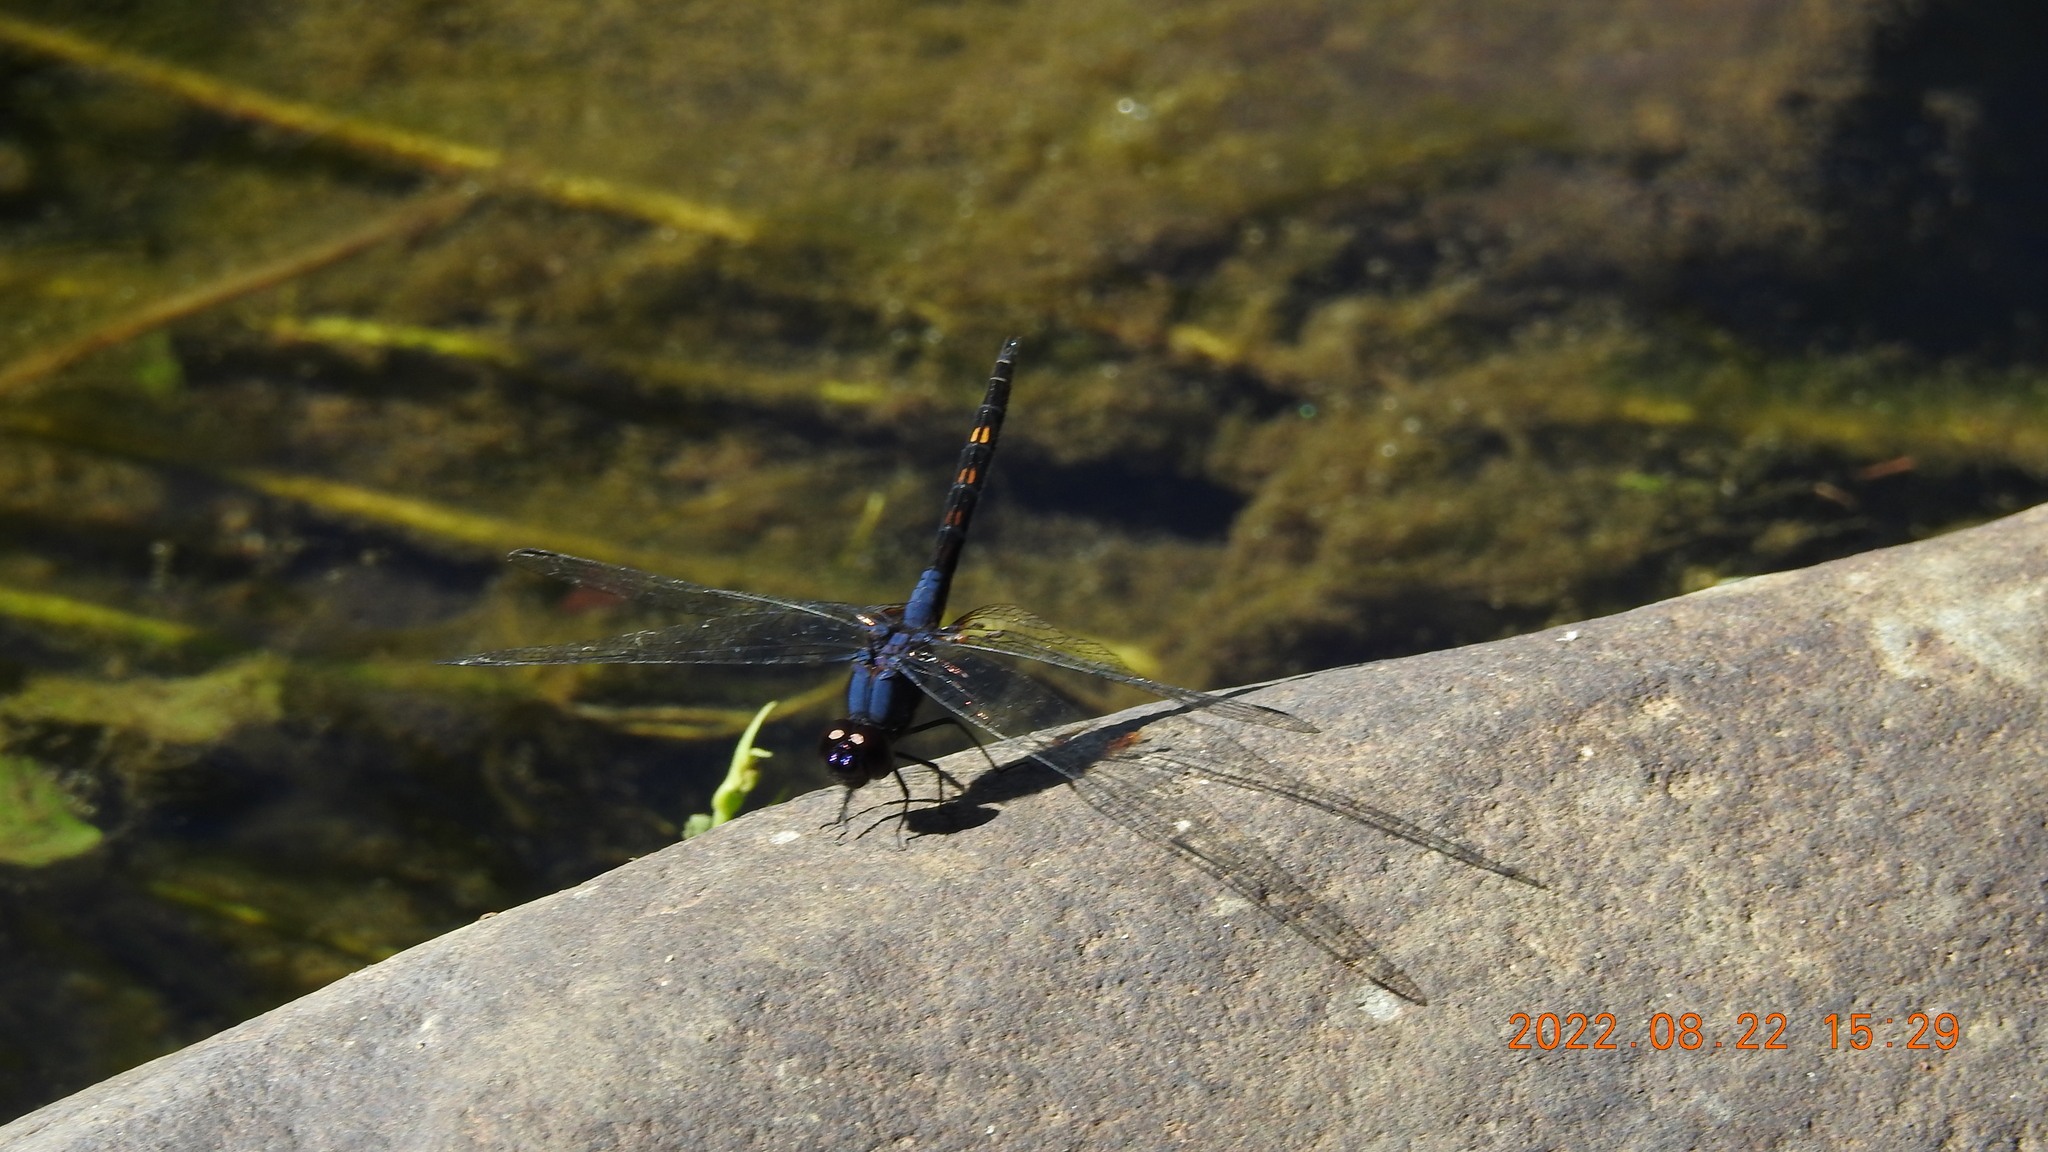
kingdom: Animalia
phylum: Arthropoda
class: Insecta
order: Odonata
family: Libellulidae
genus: Trithemis
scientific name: Trithemis festiva
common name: Indigo dropwing
